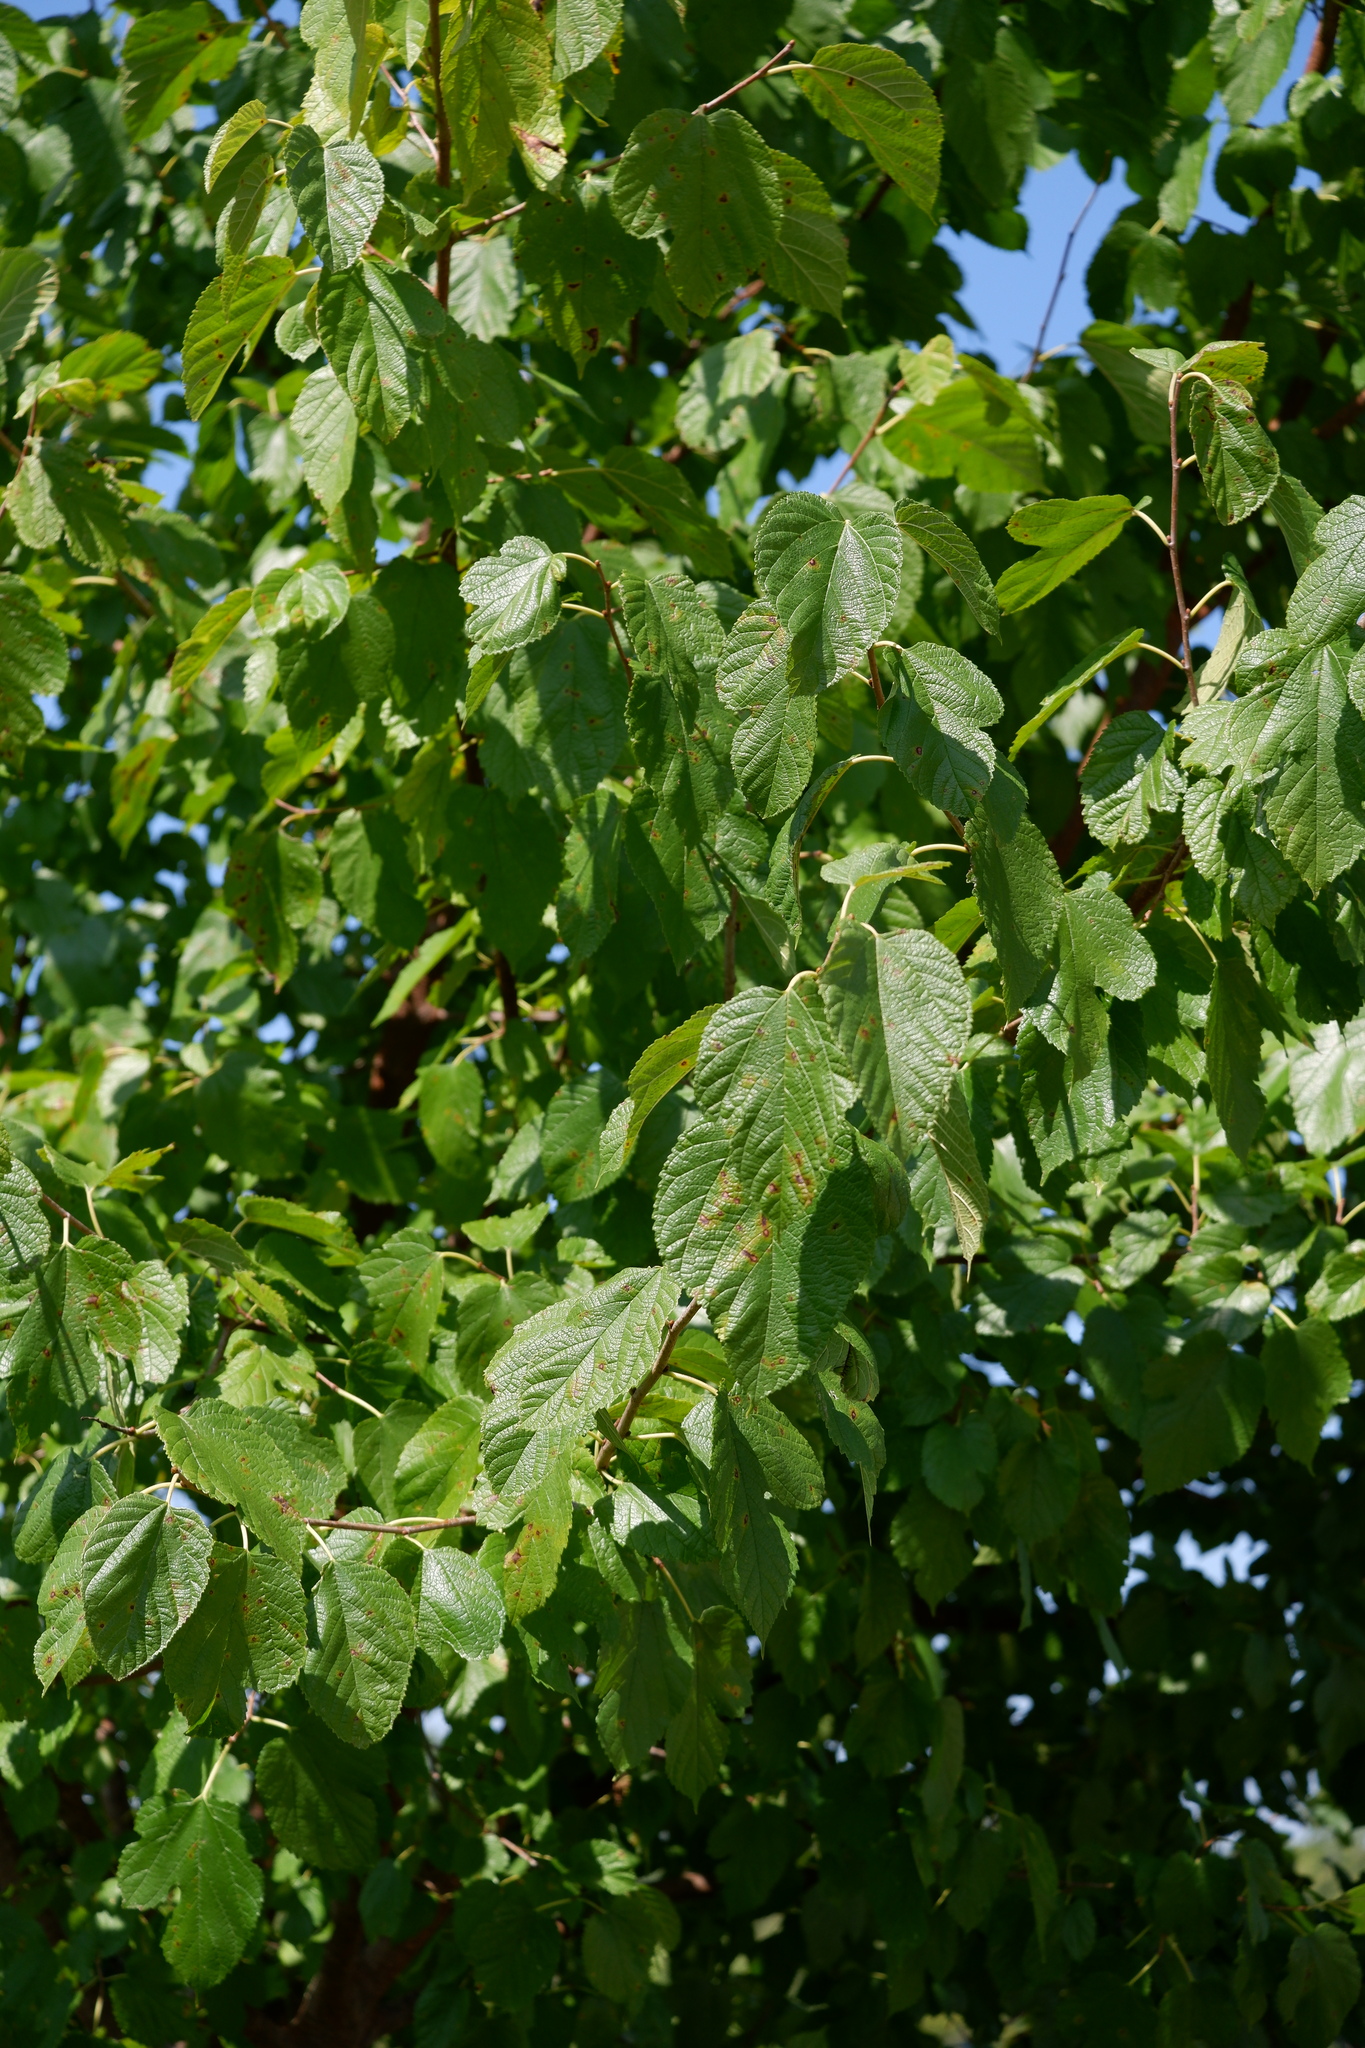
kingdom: Plantae
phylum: Tracheophyta
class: Magnoliopsida
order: Rosales
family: Moraceae
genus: Morus
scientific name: Morus alba
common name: White mulberry
